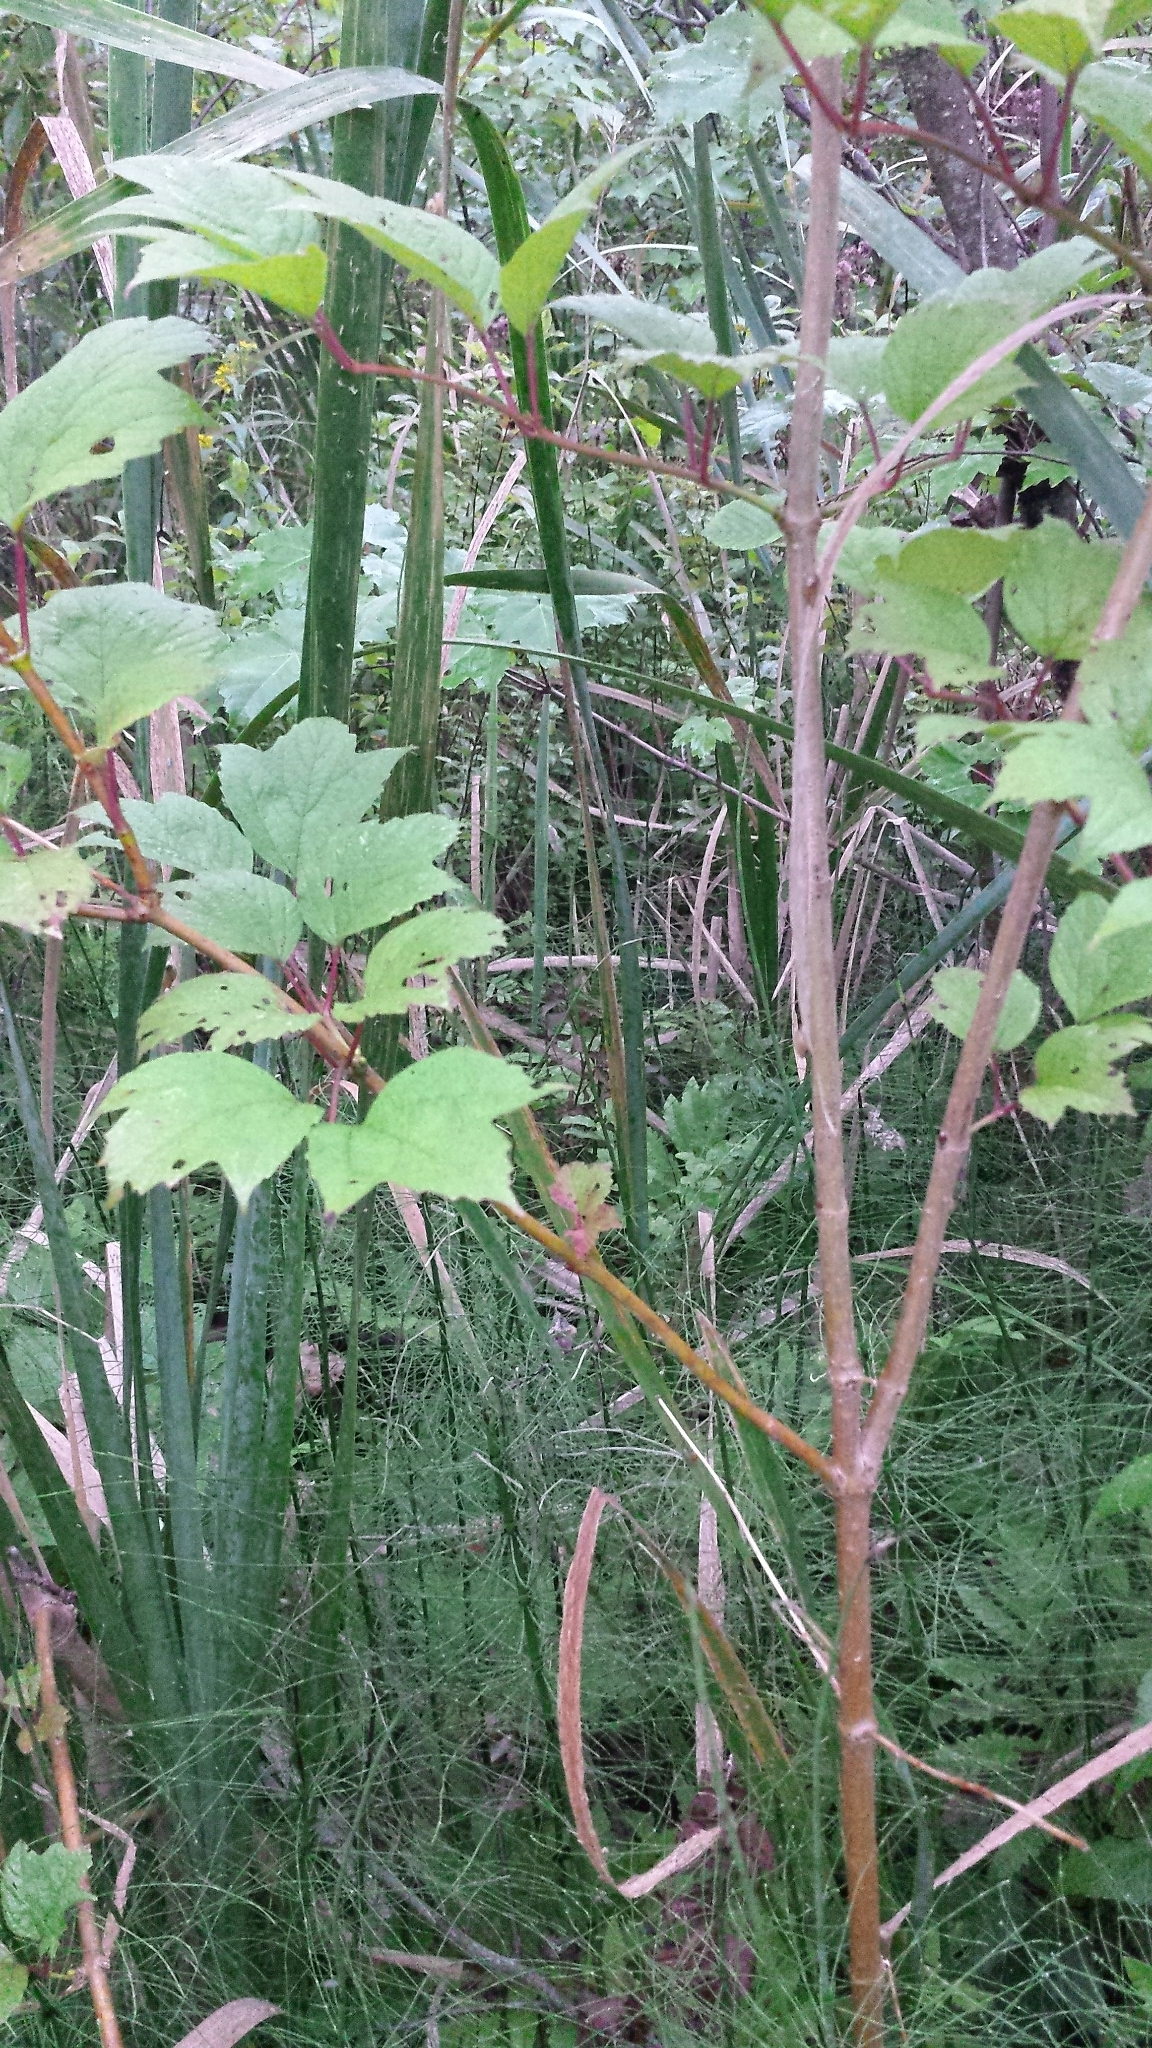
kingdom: Plantae
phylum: Tracheophyta
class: Magnoliopsida
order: Dipsacales
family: Viburnaceae
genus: Viburnum
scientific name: Viburnum trilobum
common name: American cranberrybush
